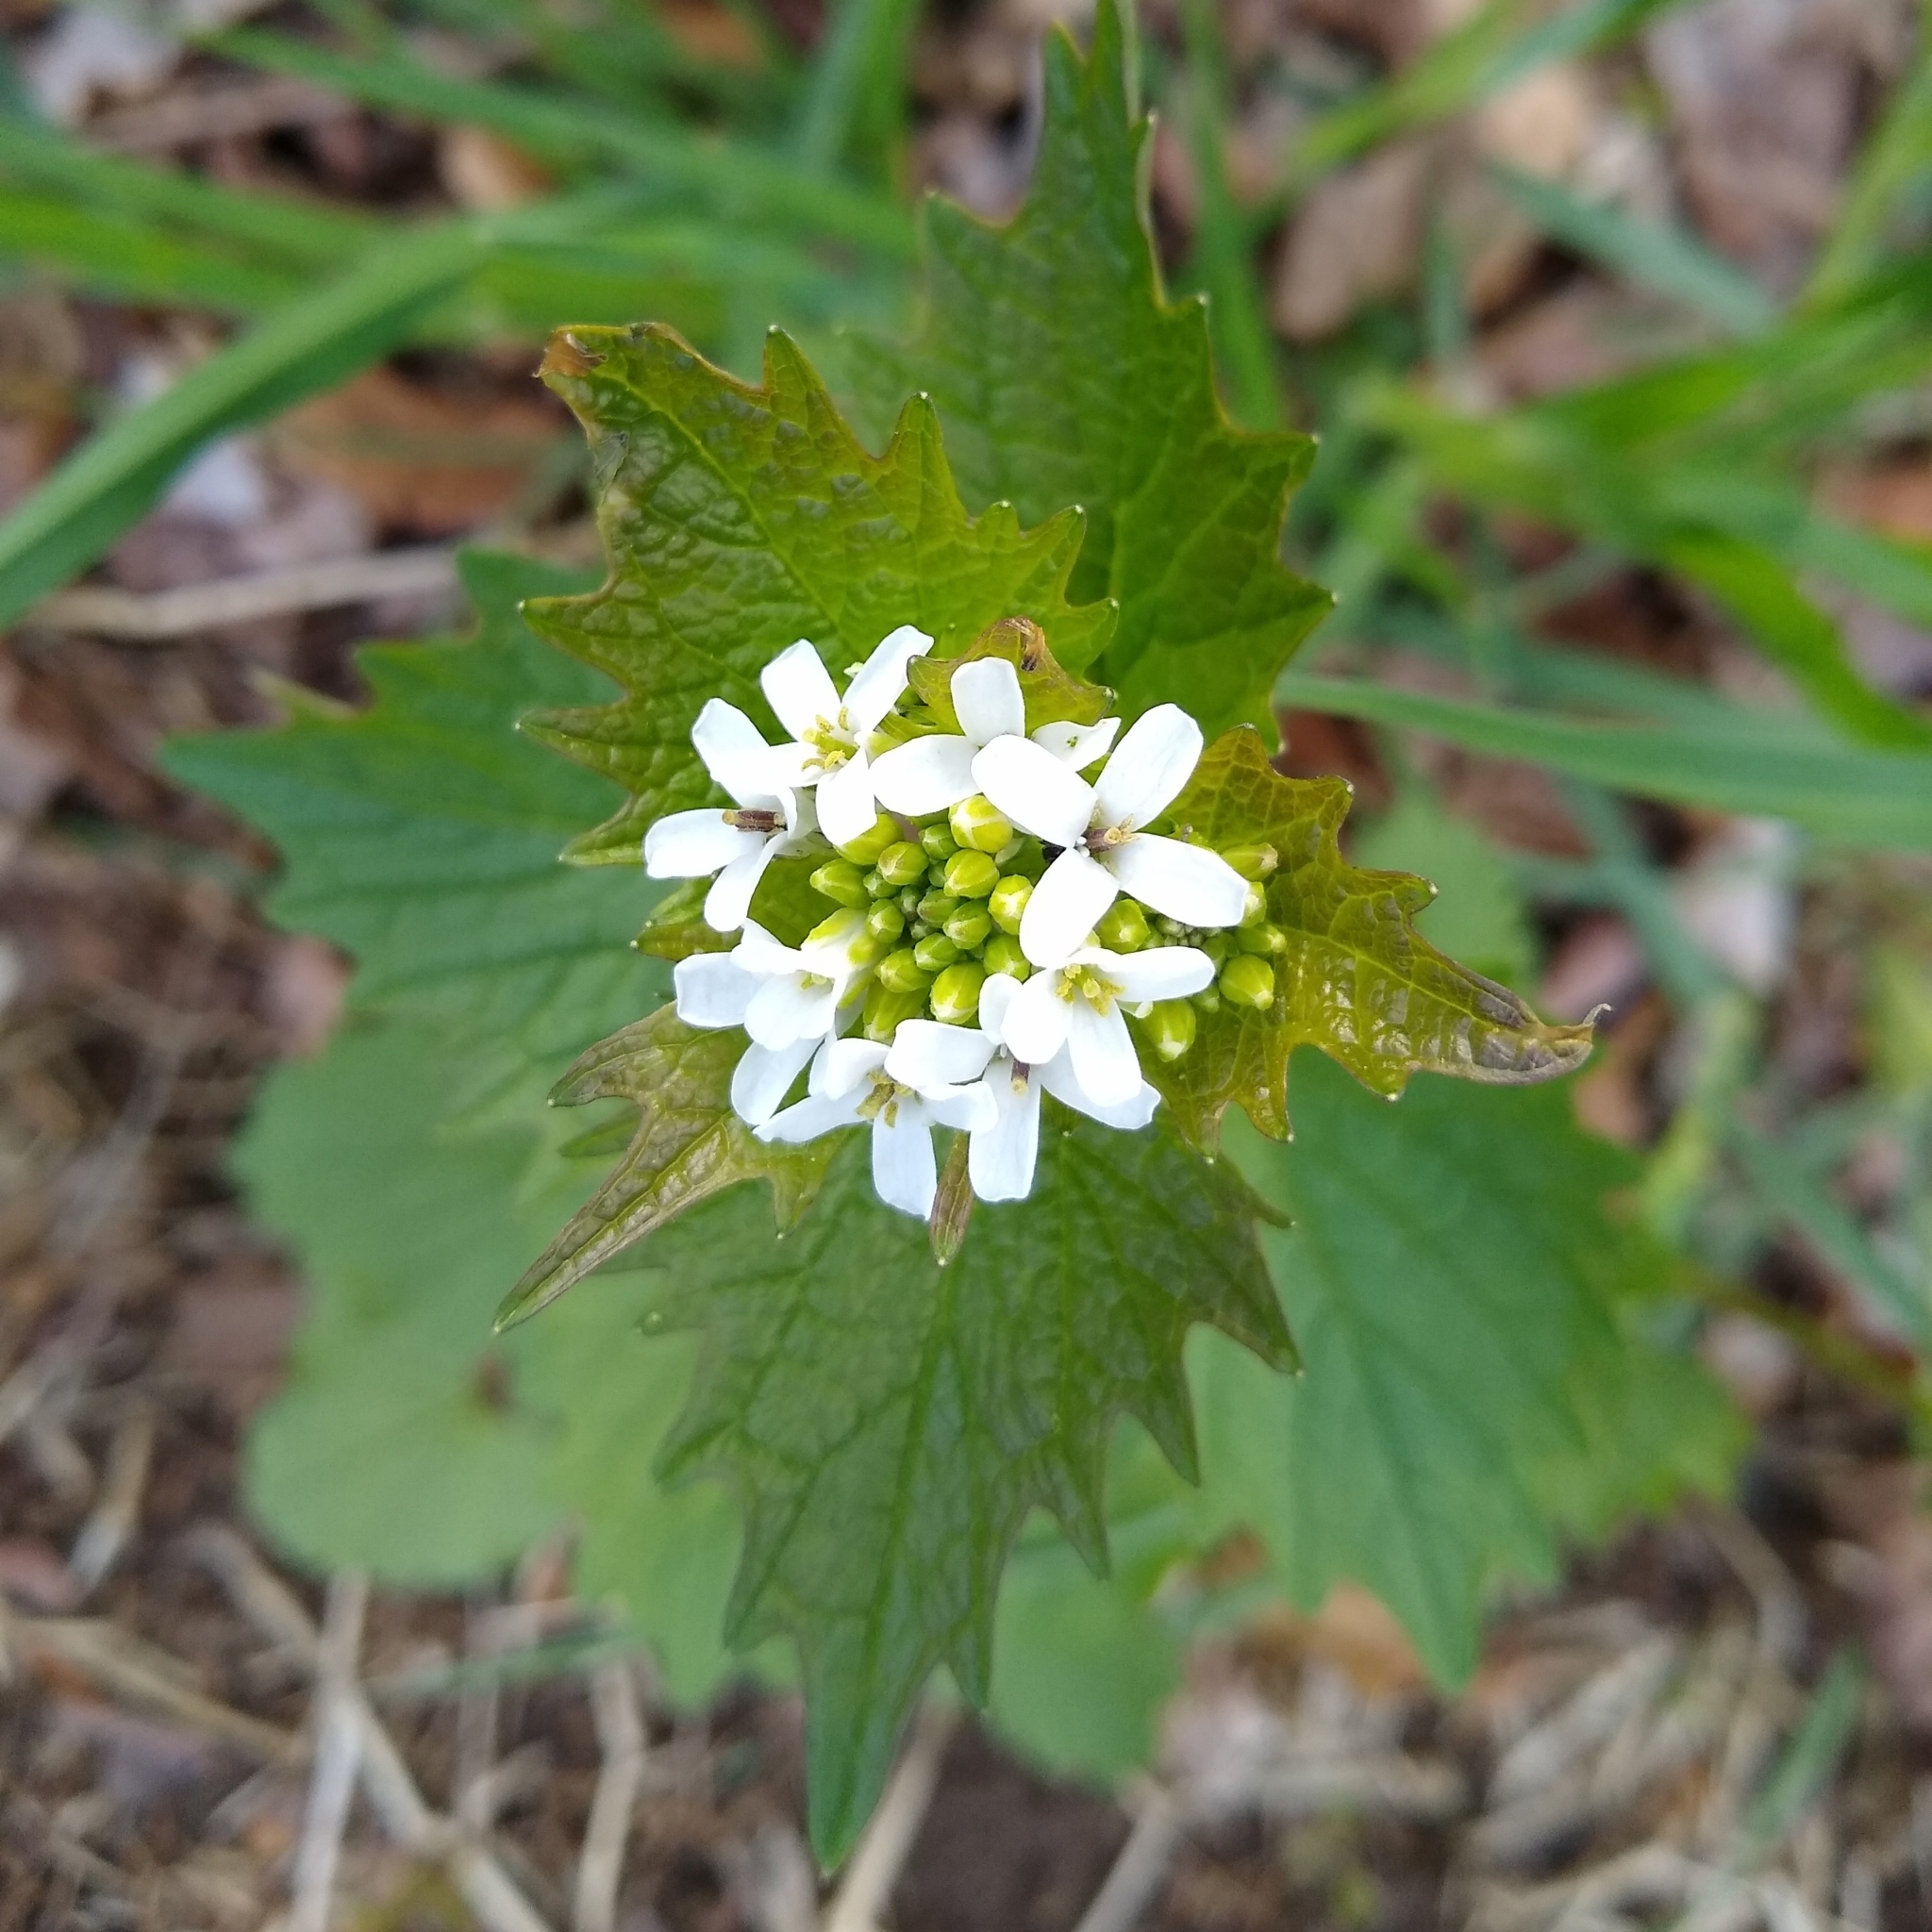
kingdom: Plantae
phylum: Tracheophyta
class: Magnoliopsida
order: Brassicales
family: Brassicaceae
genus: Alliaria
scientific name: Alliaria petiolata
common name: Garlic mustard
